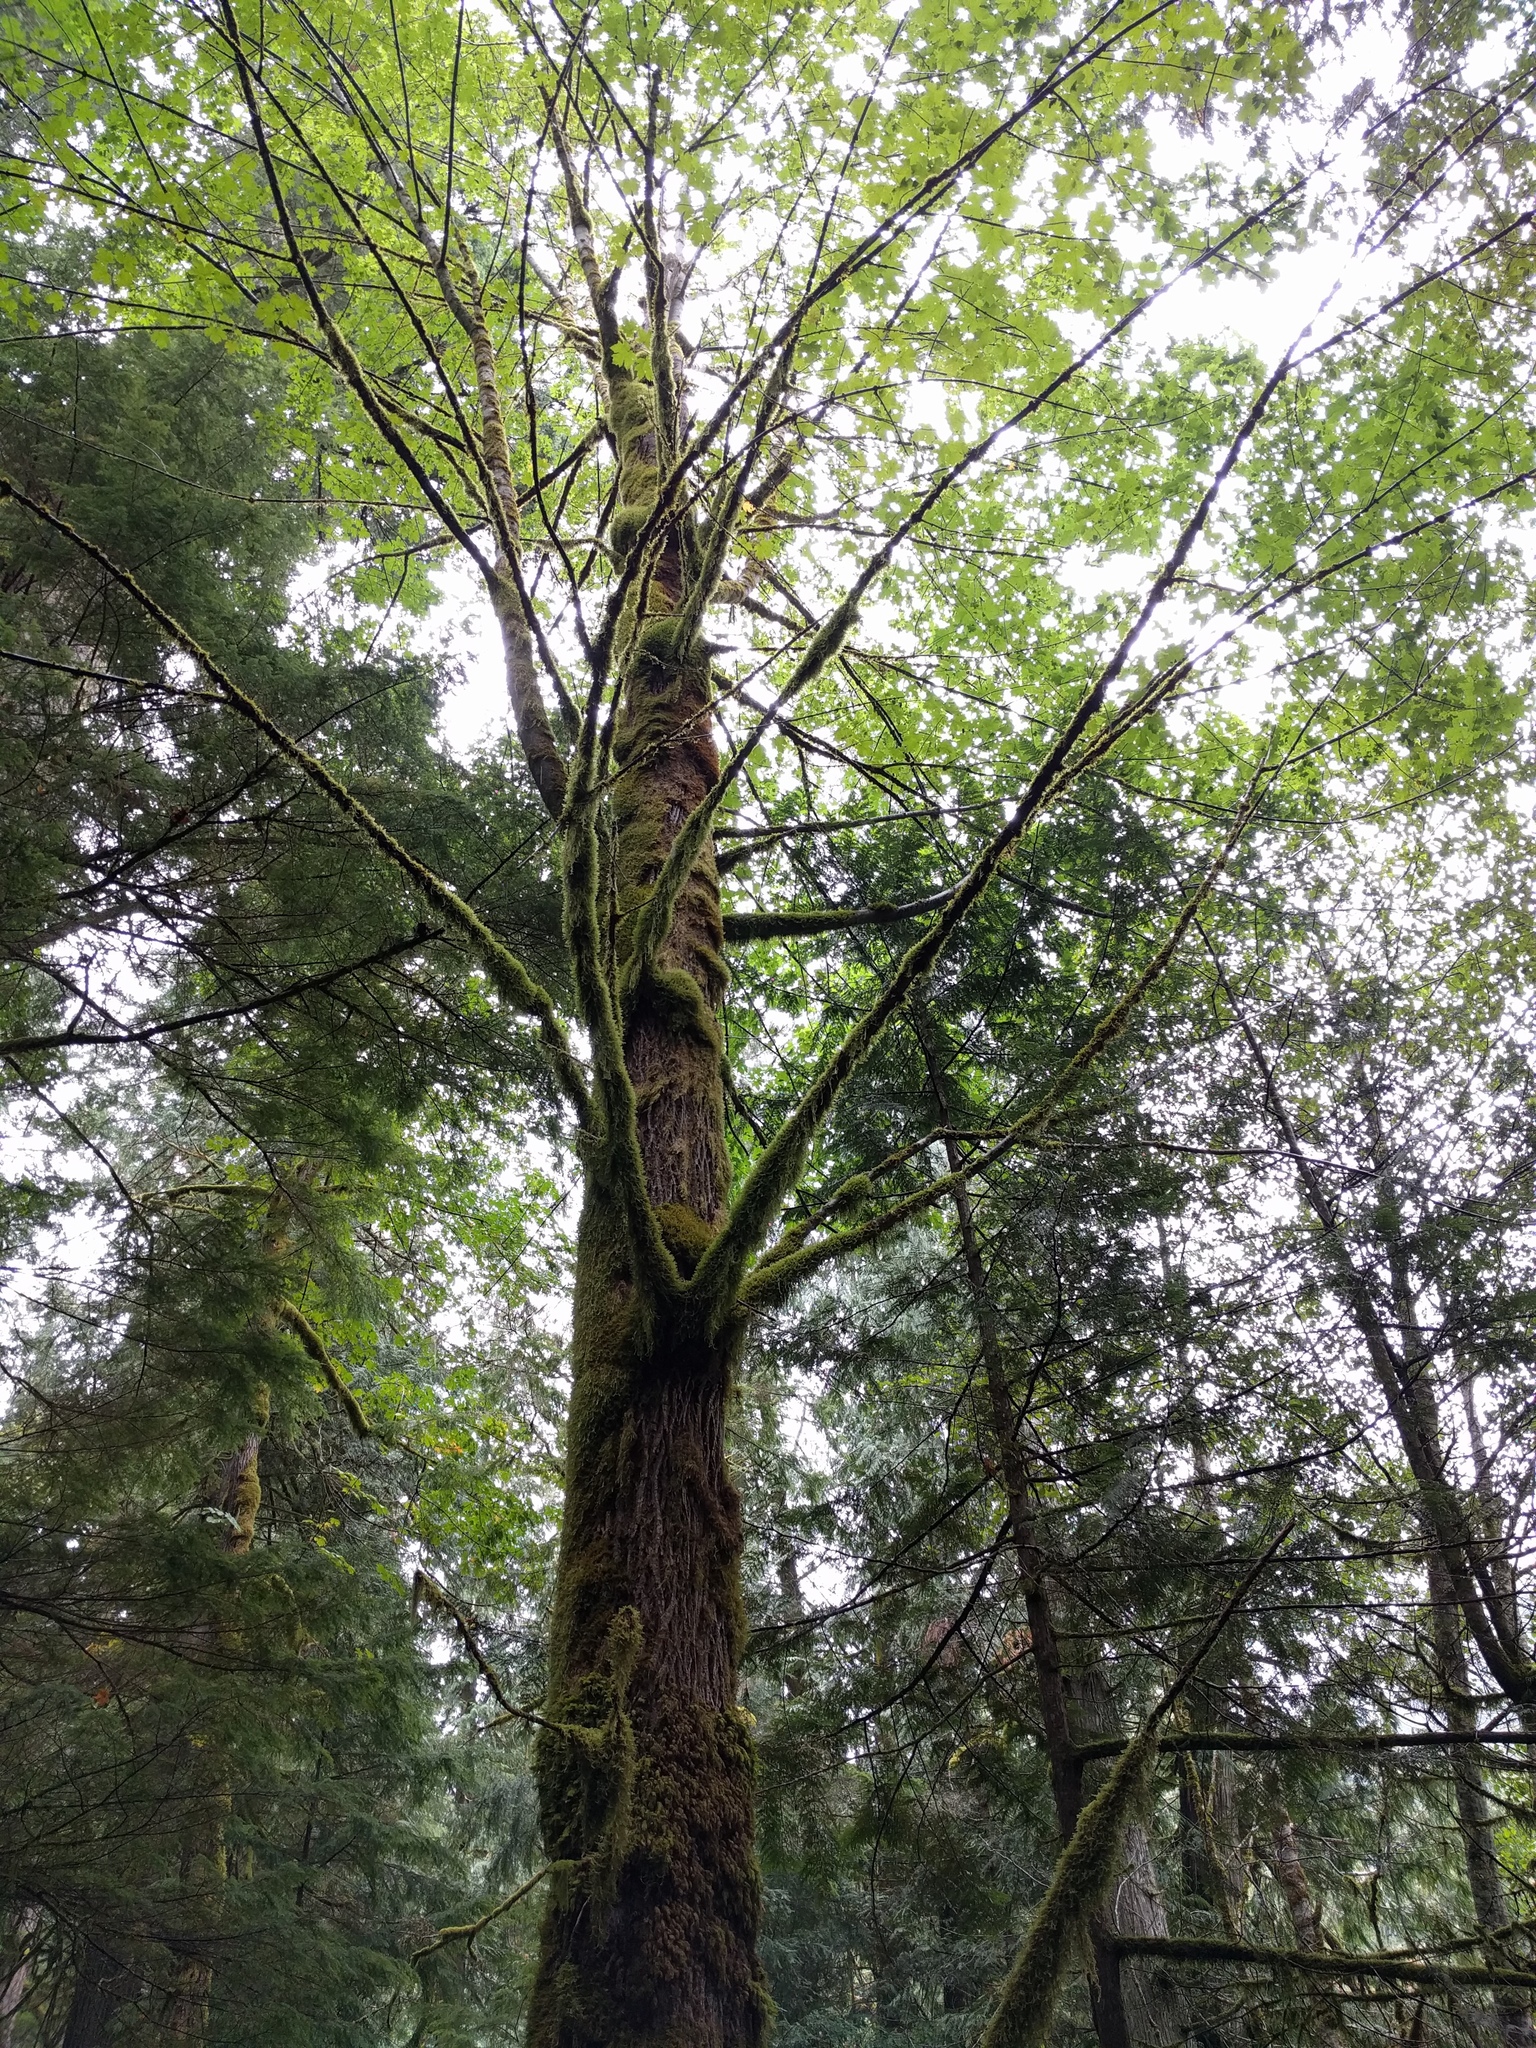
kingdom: Plantae
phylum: Tracheophyta
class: Magnoliopsida
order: Sapindales
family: Sapindaceae
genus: Acer
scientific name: Acer macrophyllum
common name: Oregon maple
